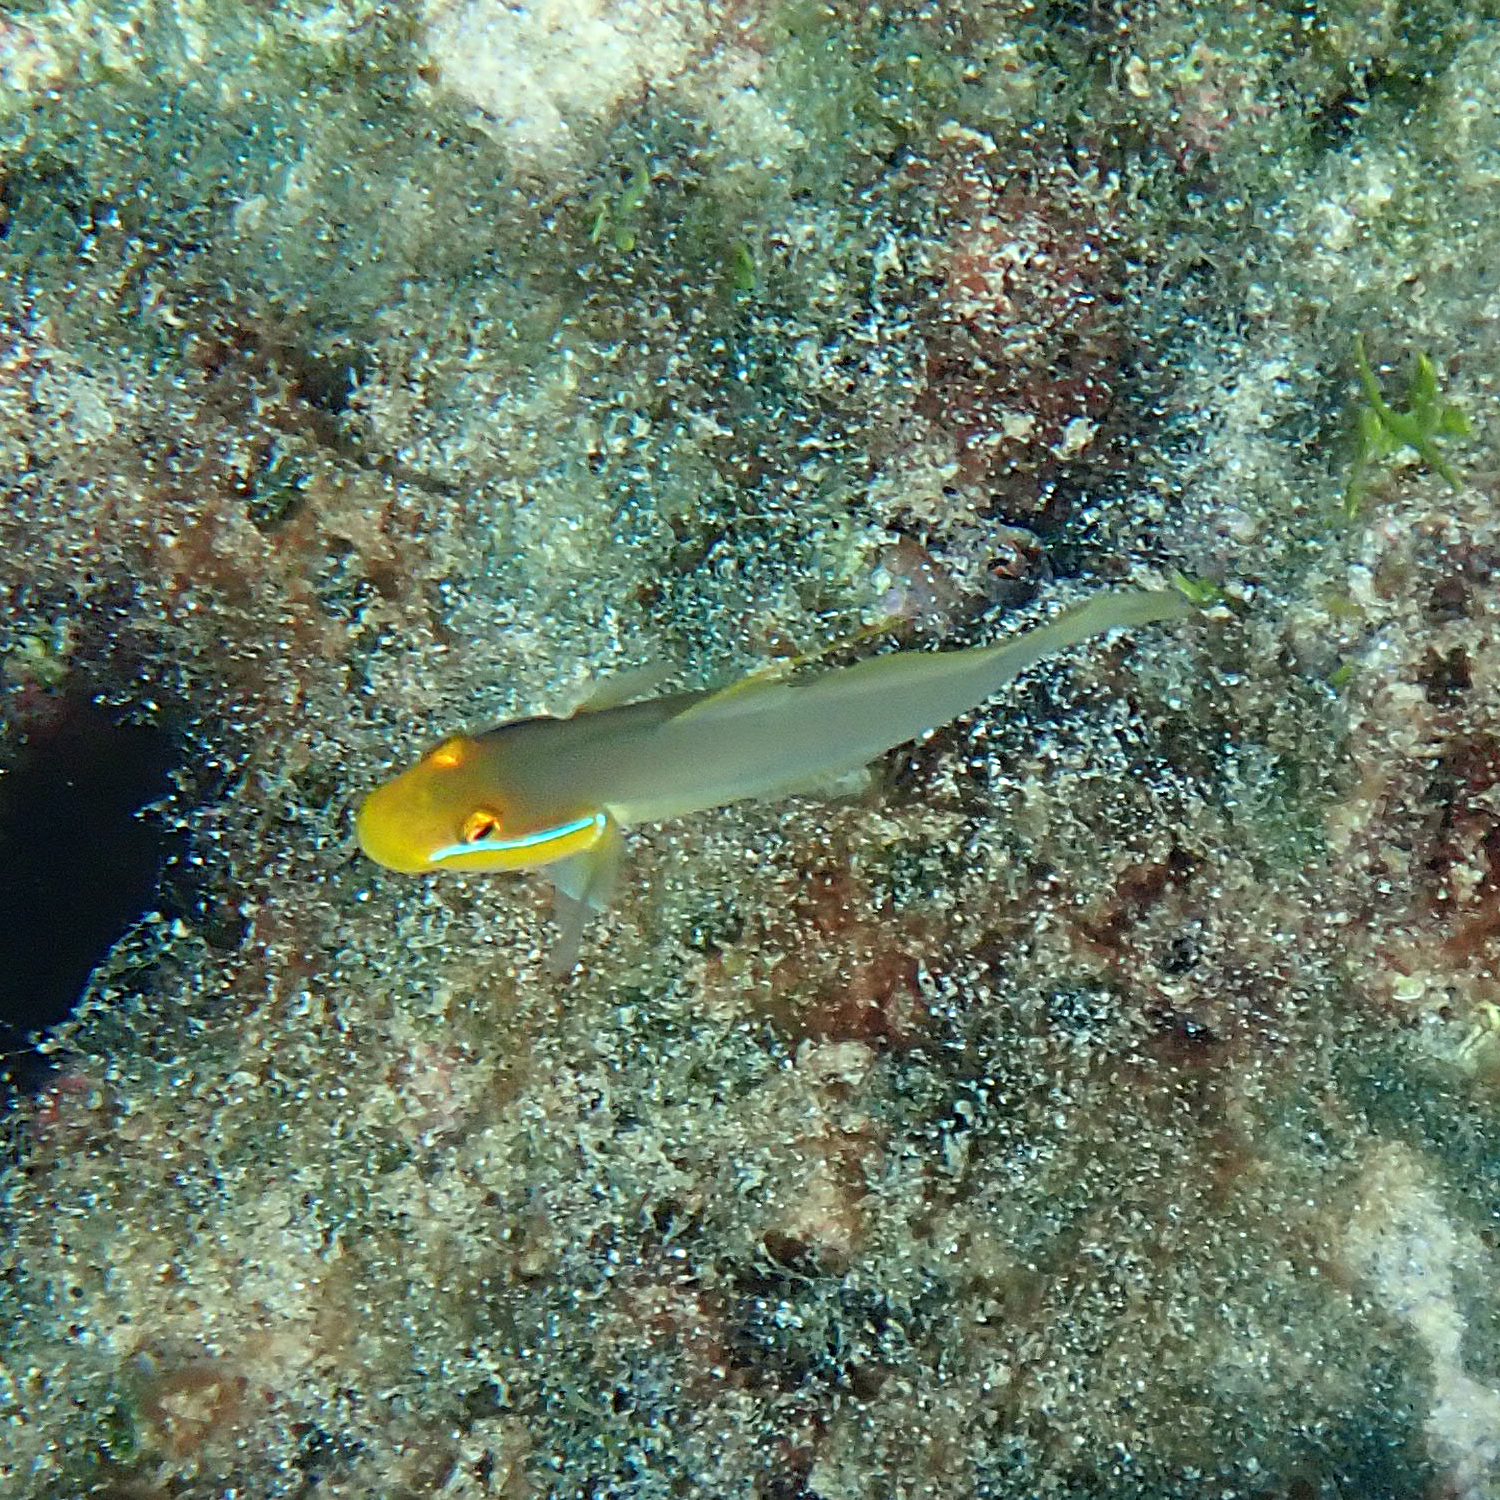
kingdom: Animalia
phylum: Chordata
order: Perciformes
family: Gobiidae
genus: Valenciennea
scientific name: Valenciennea strigata
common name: Blueband goby
